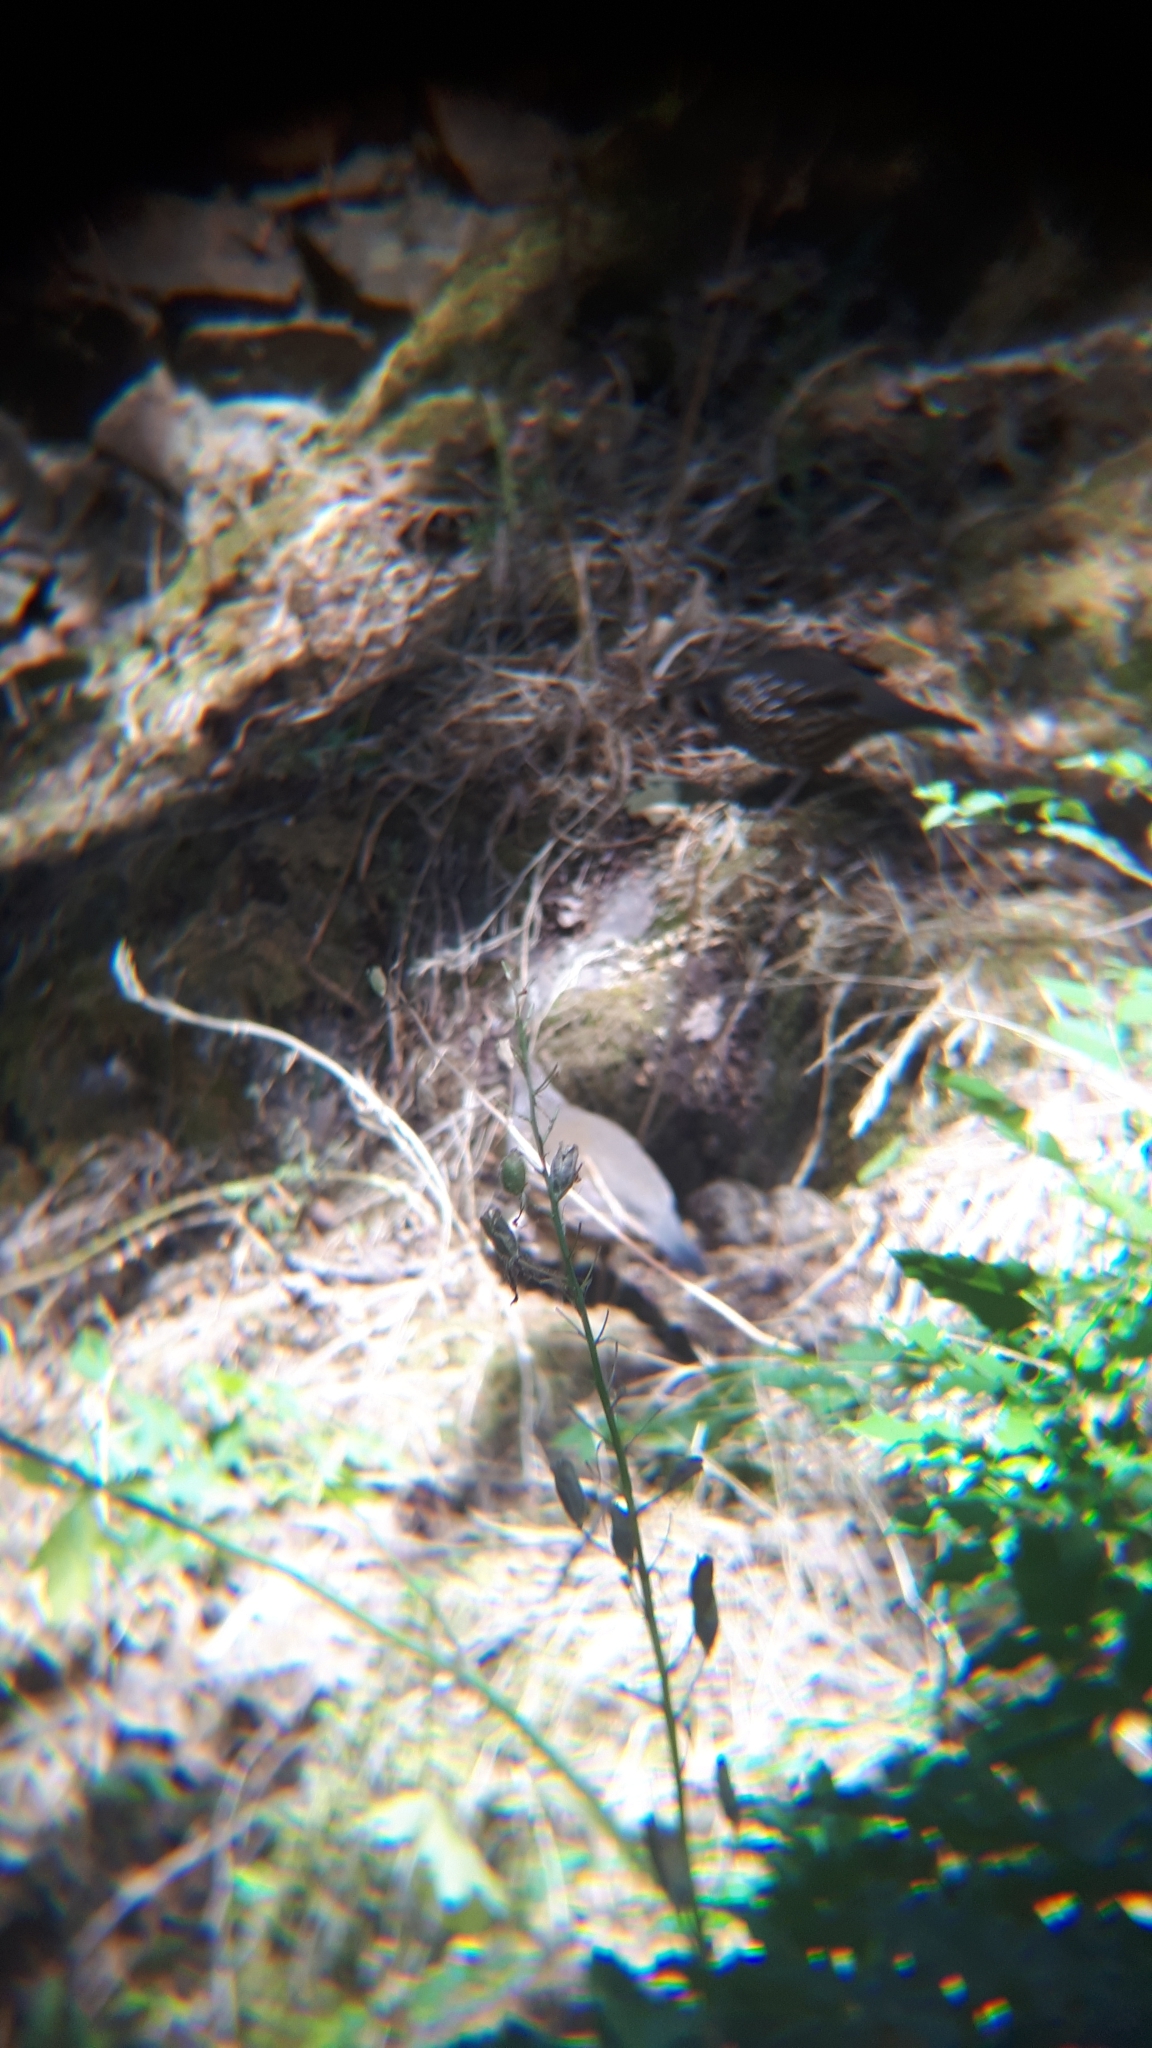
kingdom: Animalia
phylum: Chordata
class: Aves
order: Galliformes
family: Odontophoridae
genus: Callipepla
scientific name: Callipepla californica
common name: California quail
